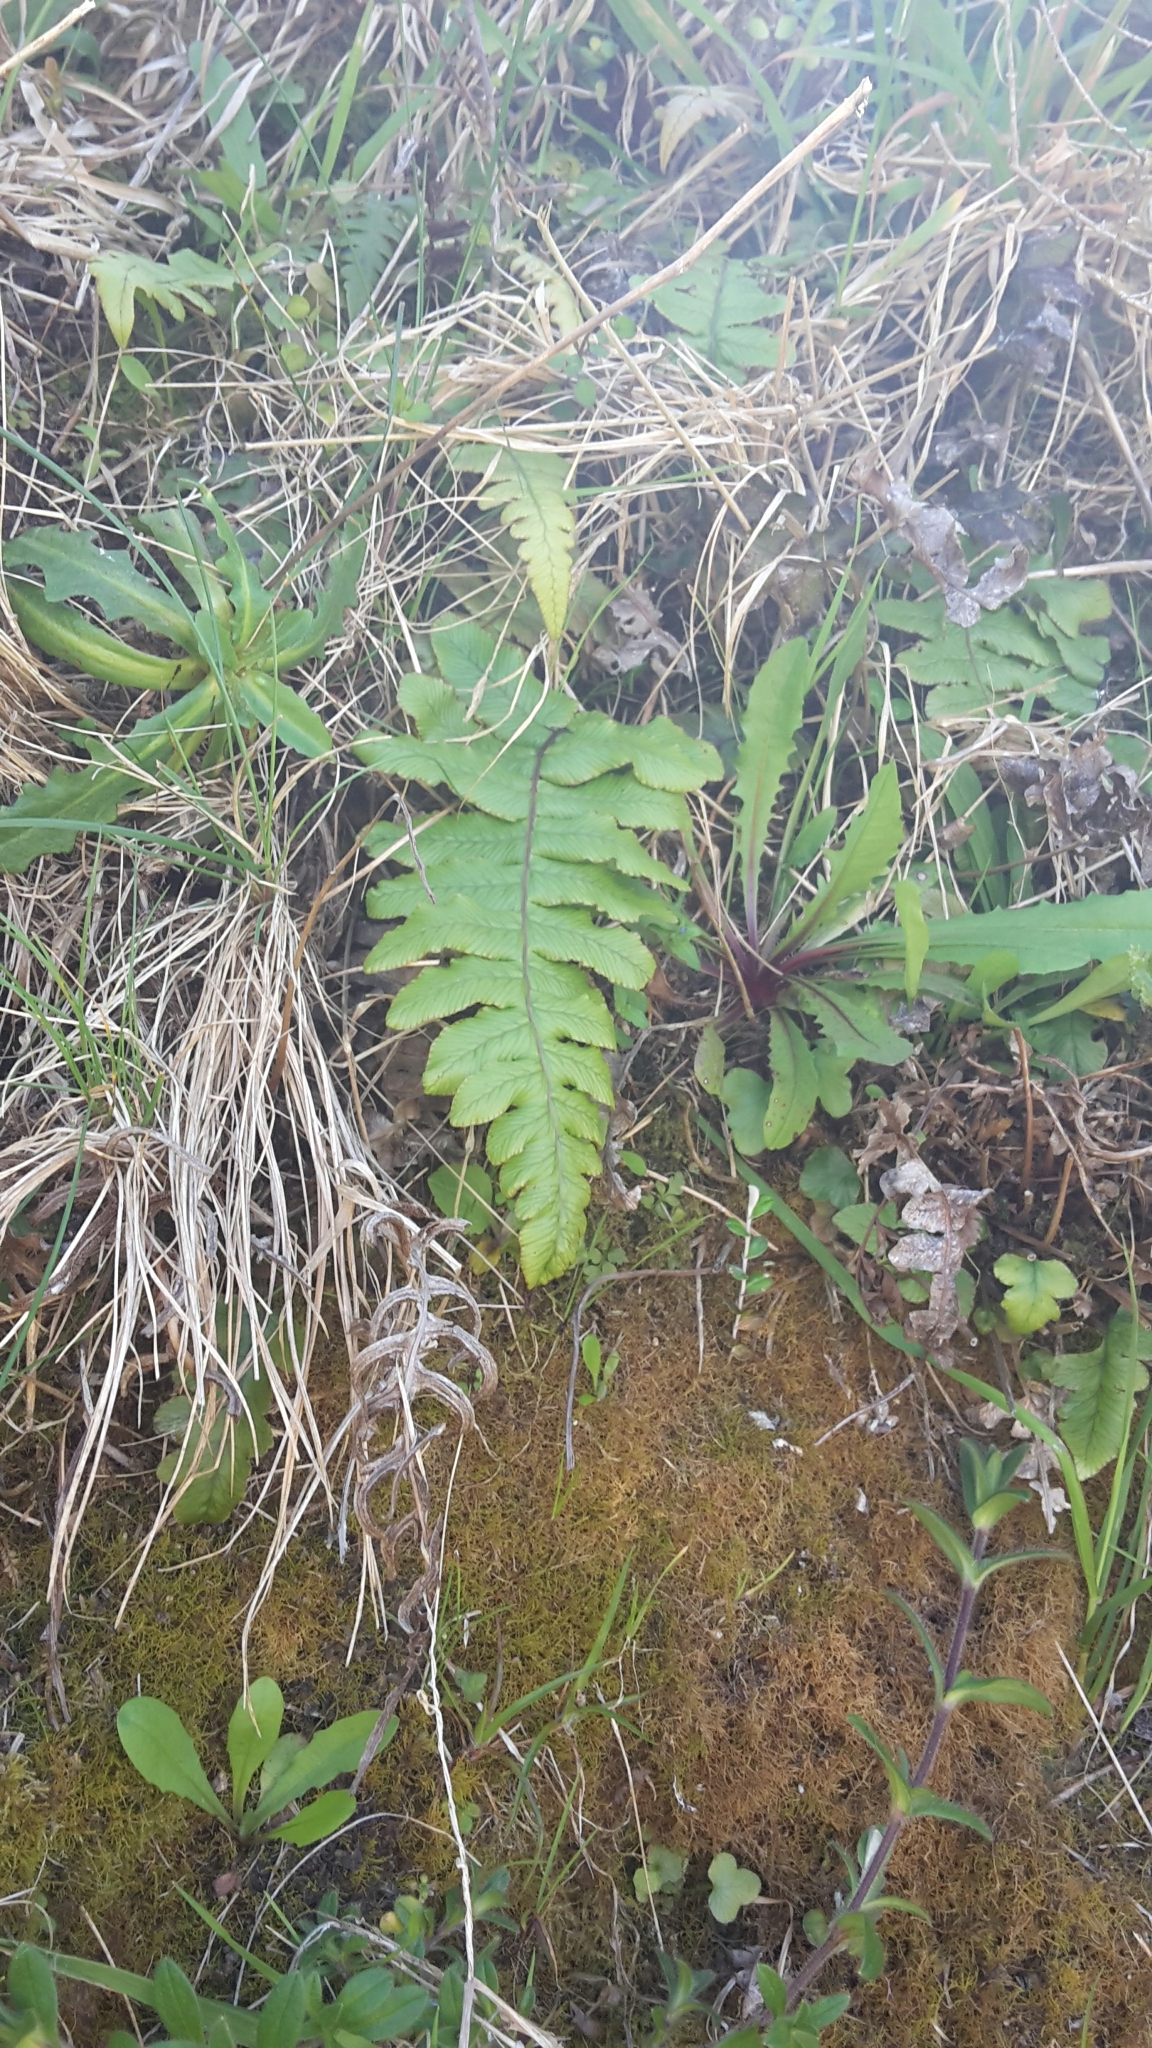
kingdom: Plantae
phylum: Tracheophyta
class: Polypodiopsida
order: Polypodiales
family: Blechnaceae
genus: Cranfillia
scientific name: Cranfillia deltoides
